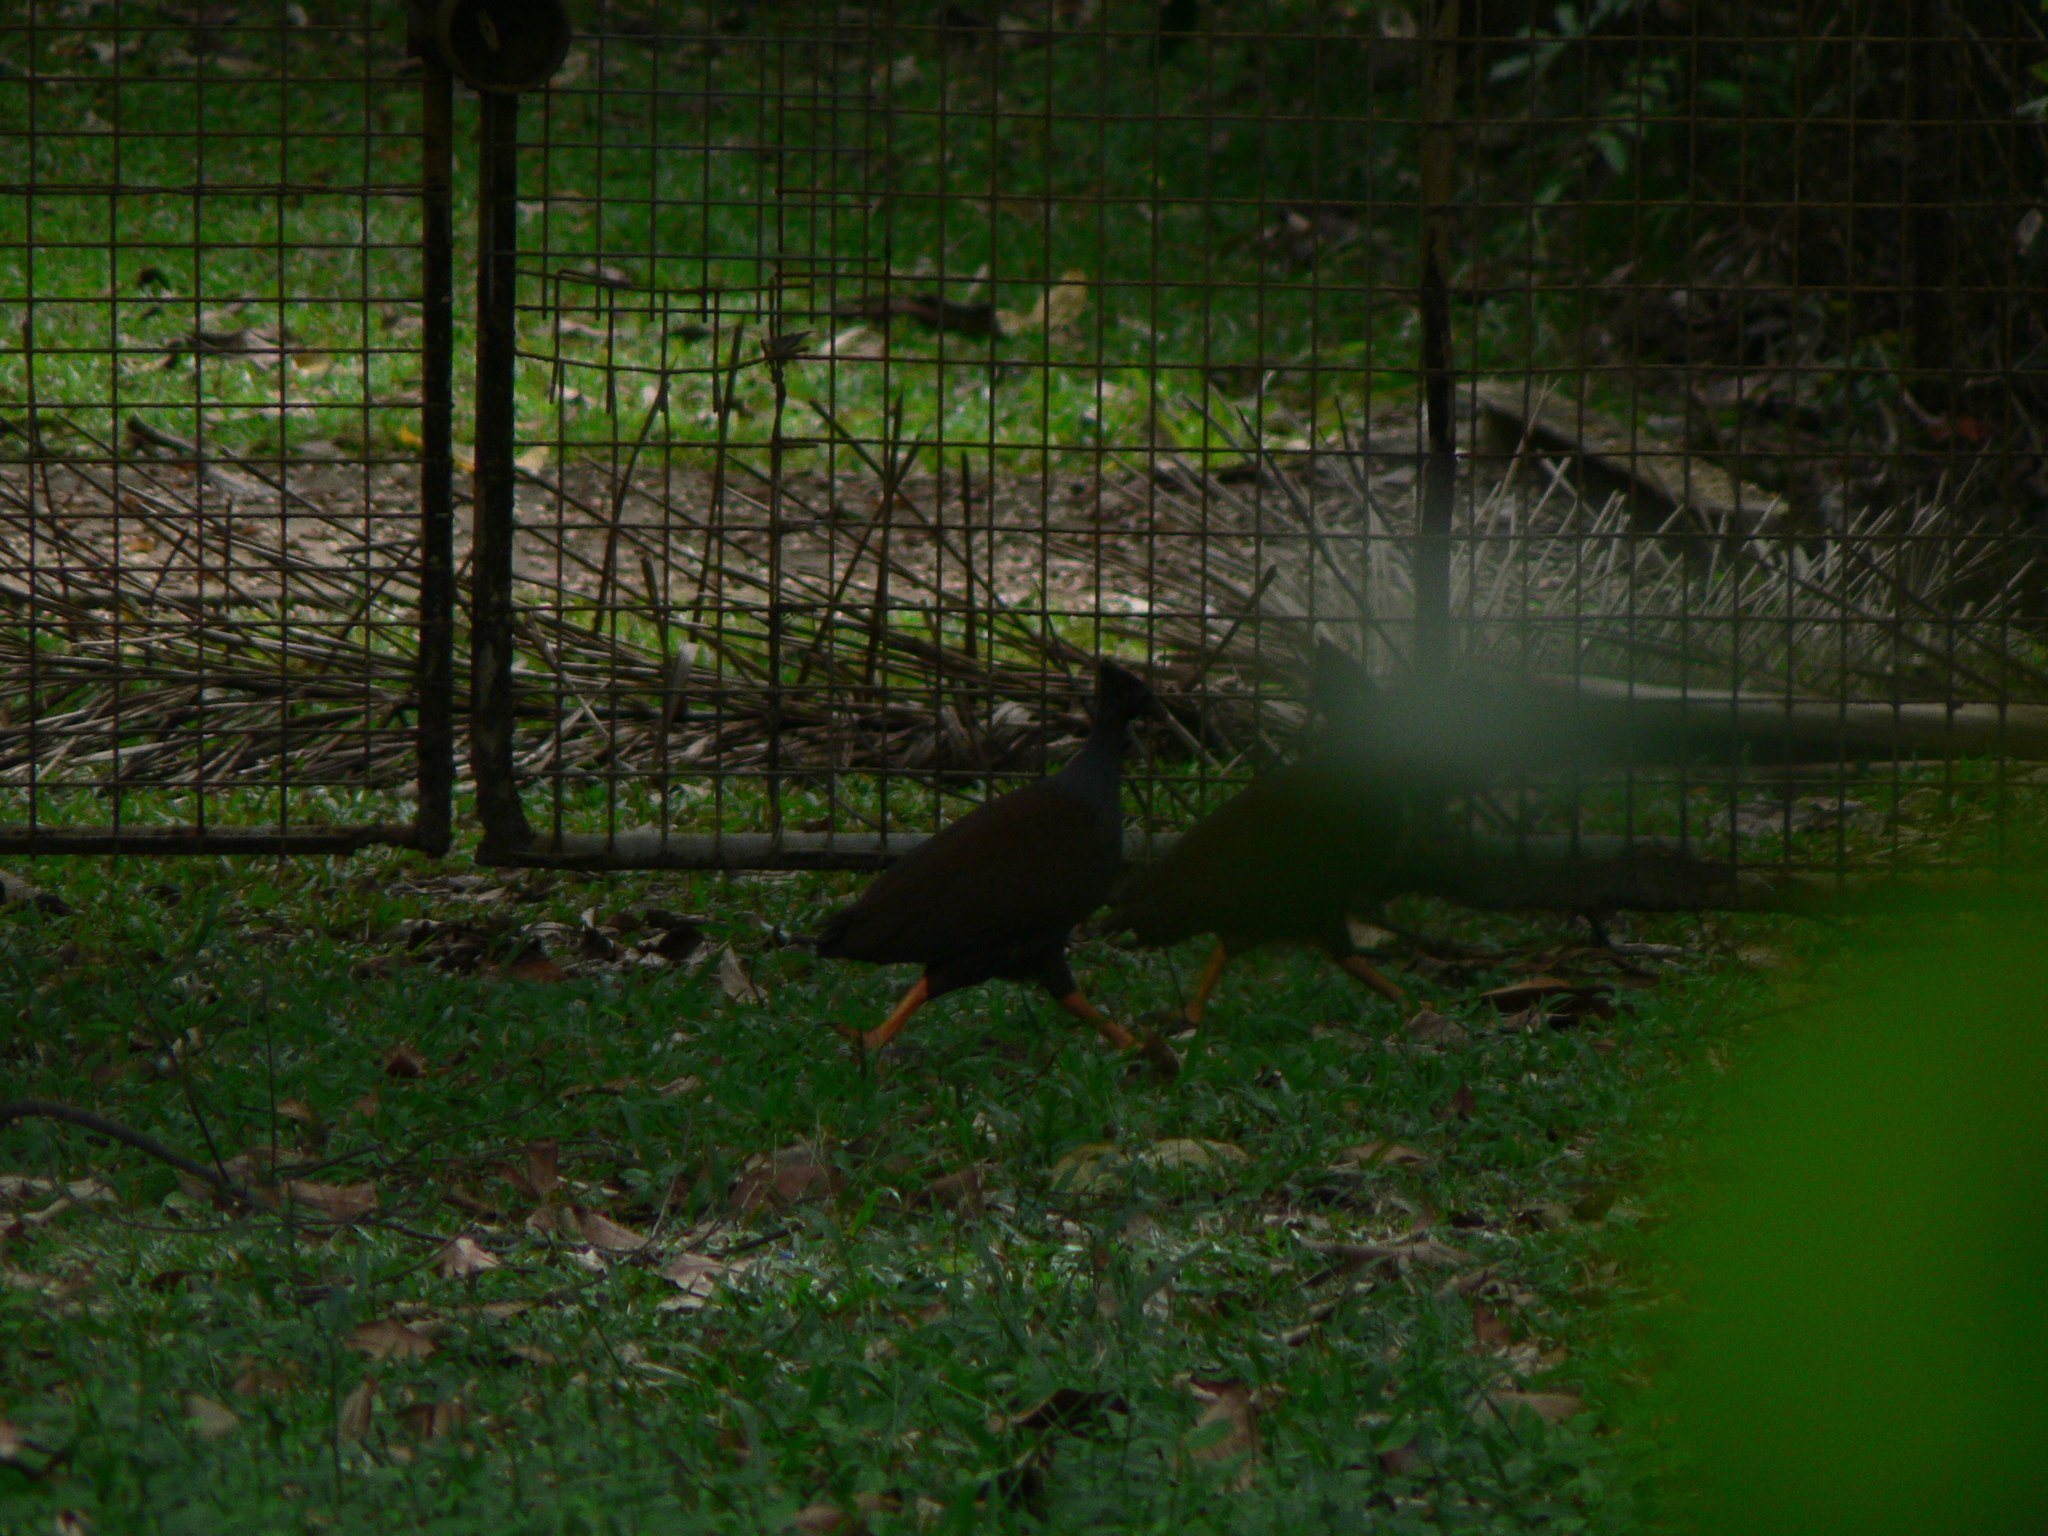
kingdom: Animalia
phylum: Chordata
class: Aves
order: Galliformes
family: Megapodiidae
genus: Megapodius
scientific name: Megapodius reinwardt
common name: Orange-footed scrubfowl
